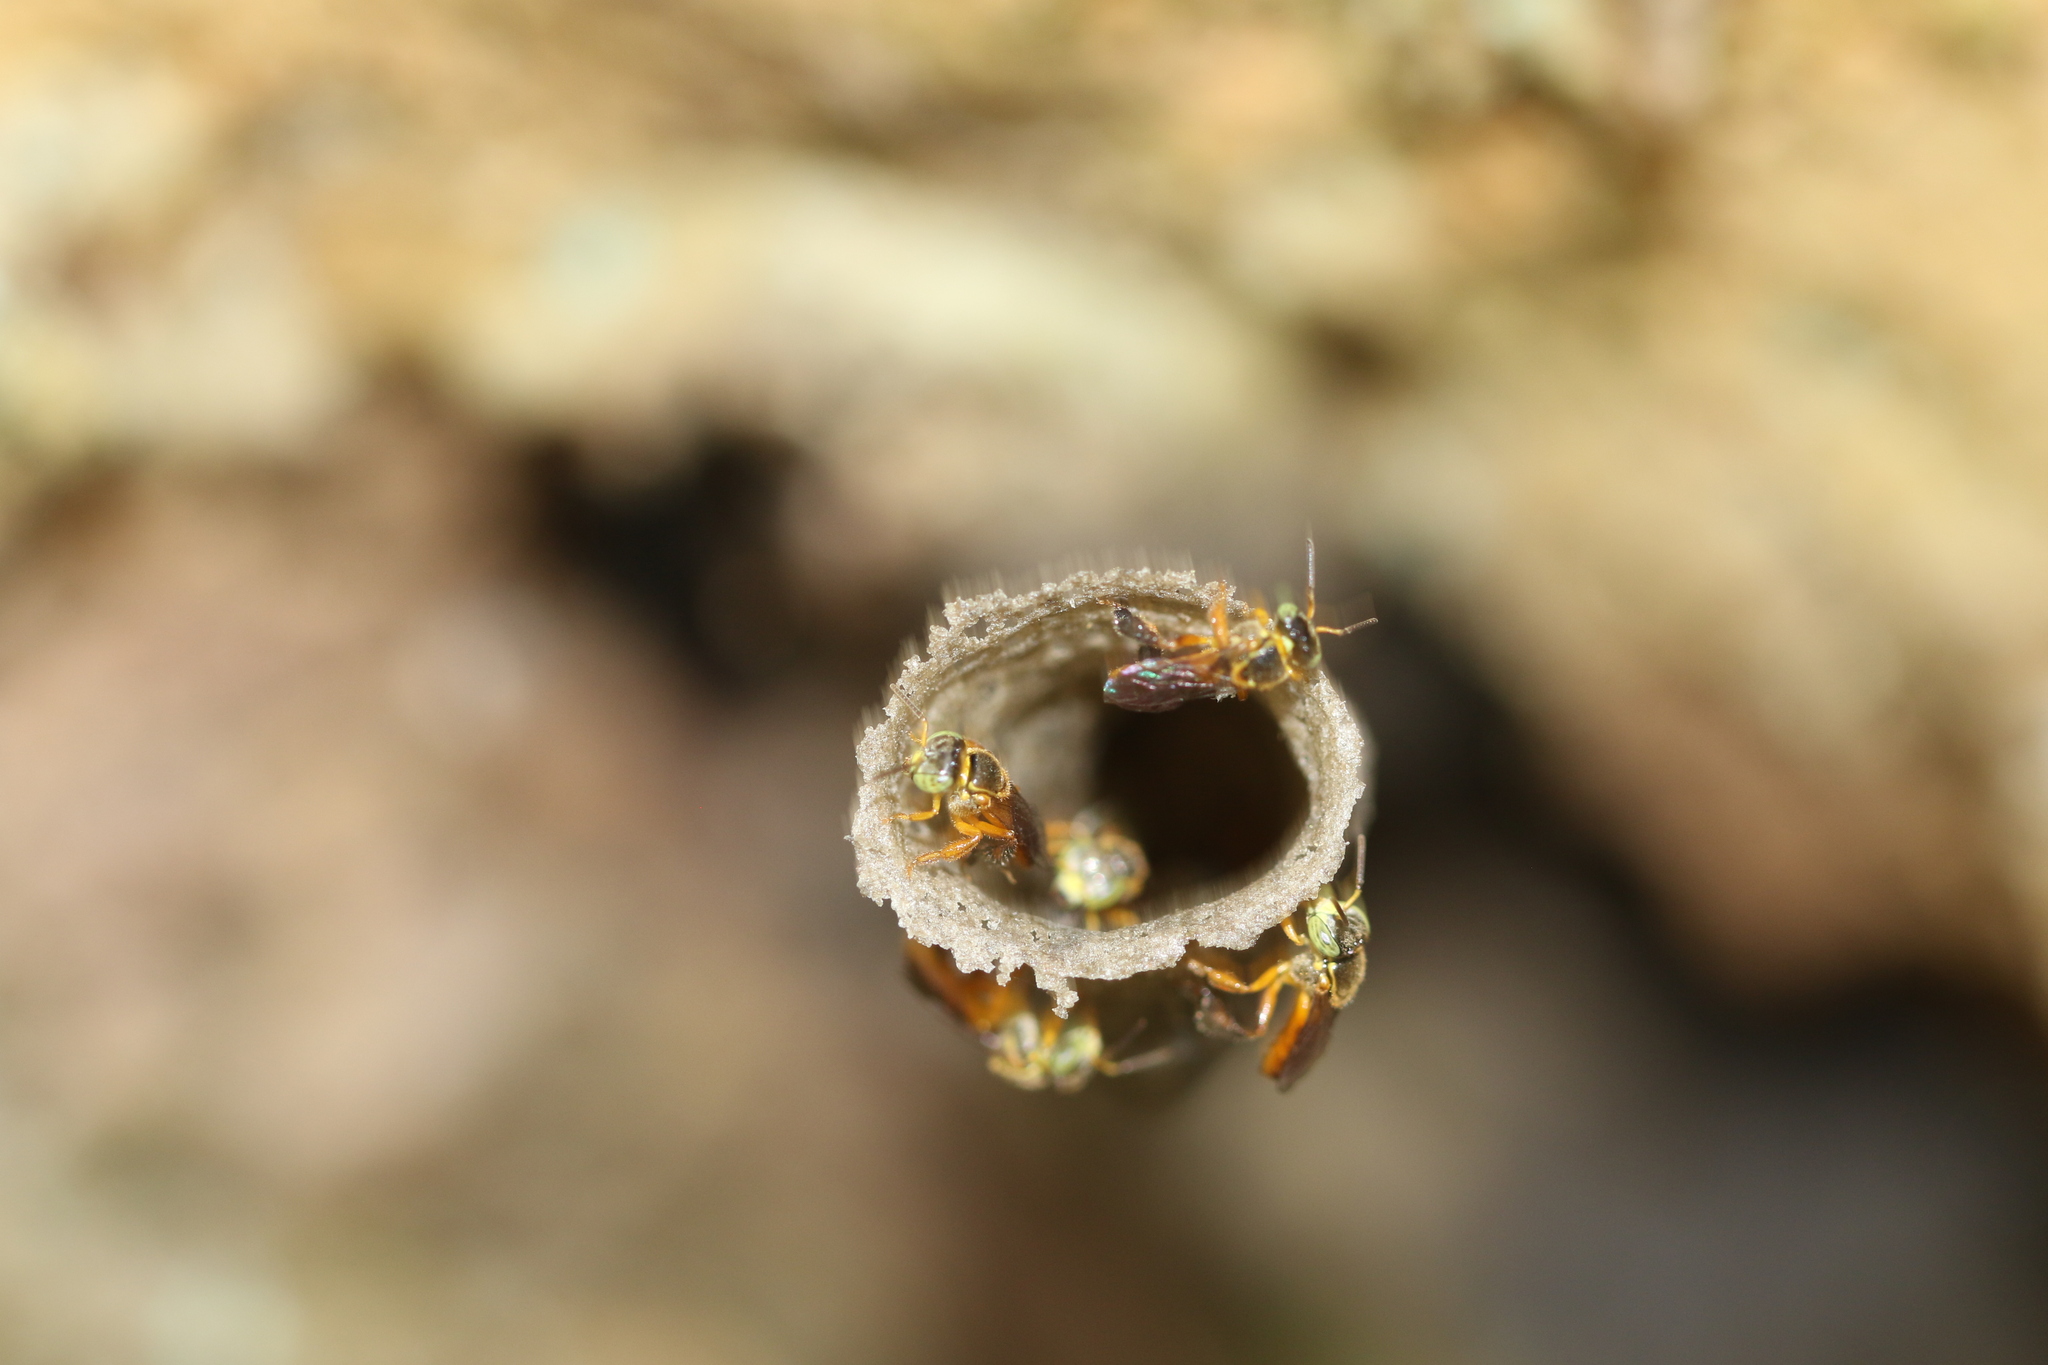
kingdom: Animalia
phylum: Arthropoda
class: Insecta
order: Hymenoptera
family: Apidae
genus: Tetragonisca
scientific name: Tetragonisca angustula
